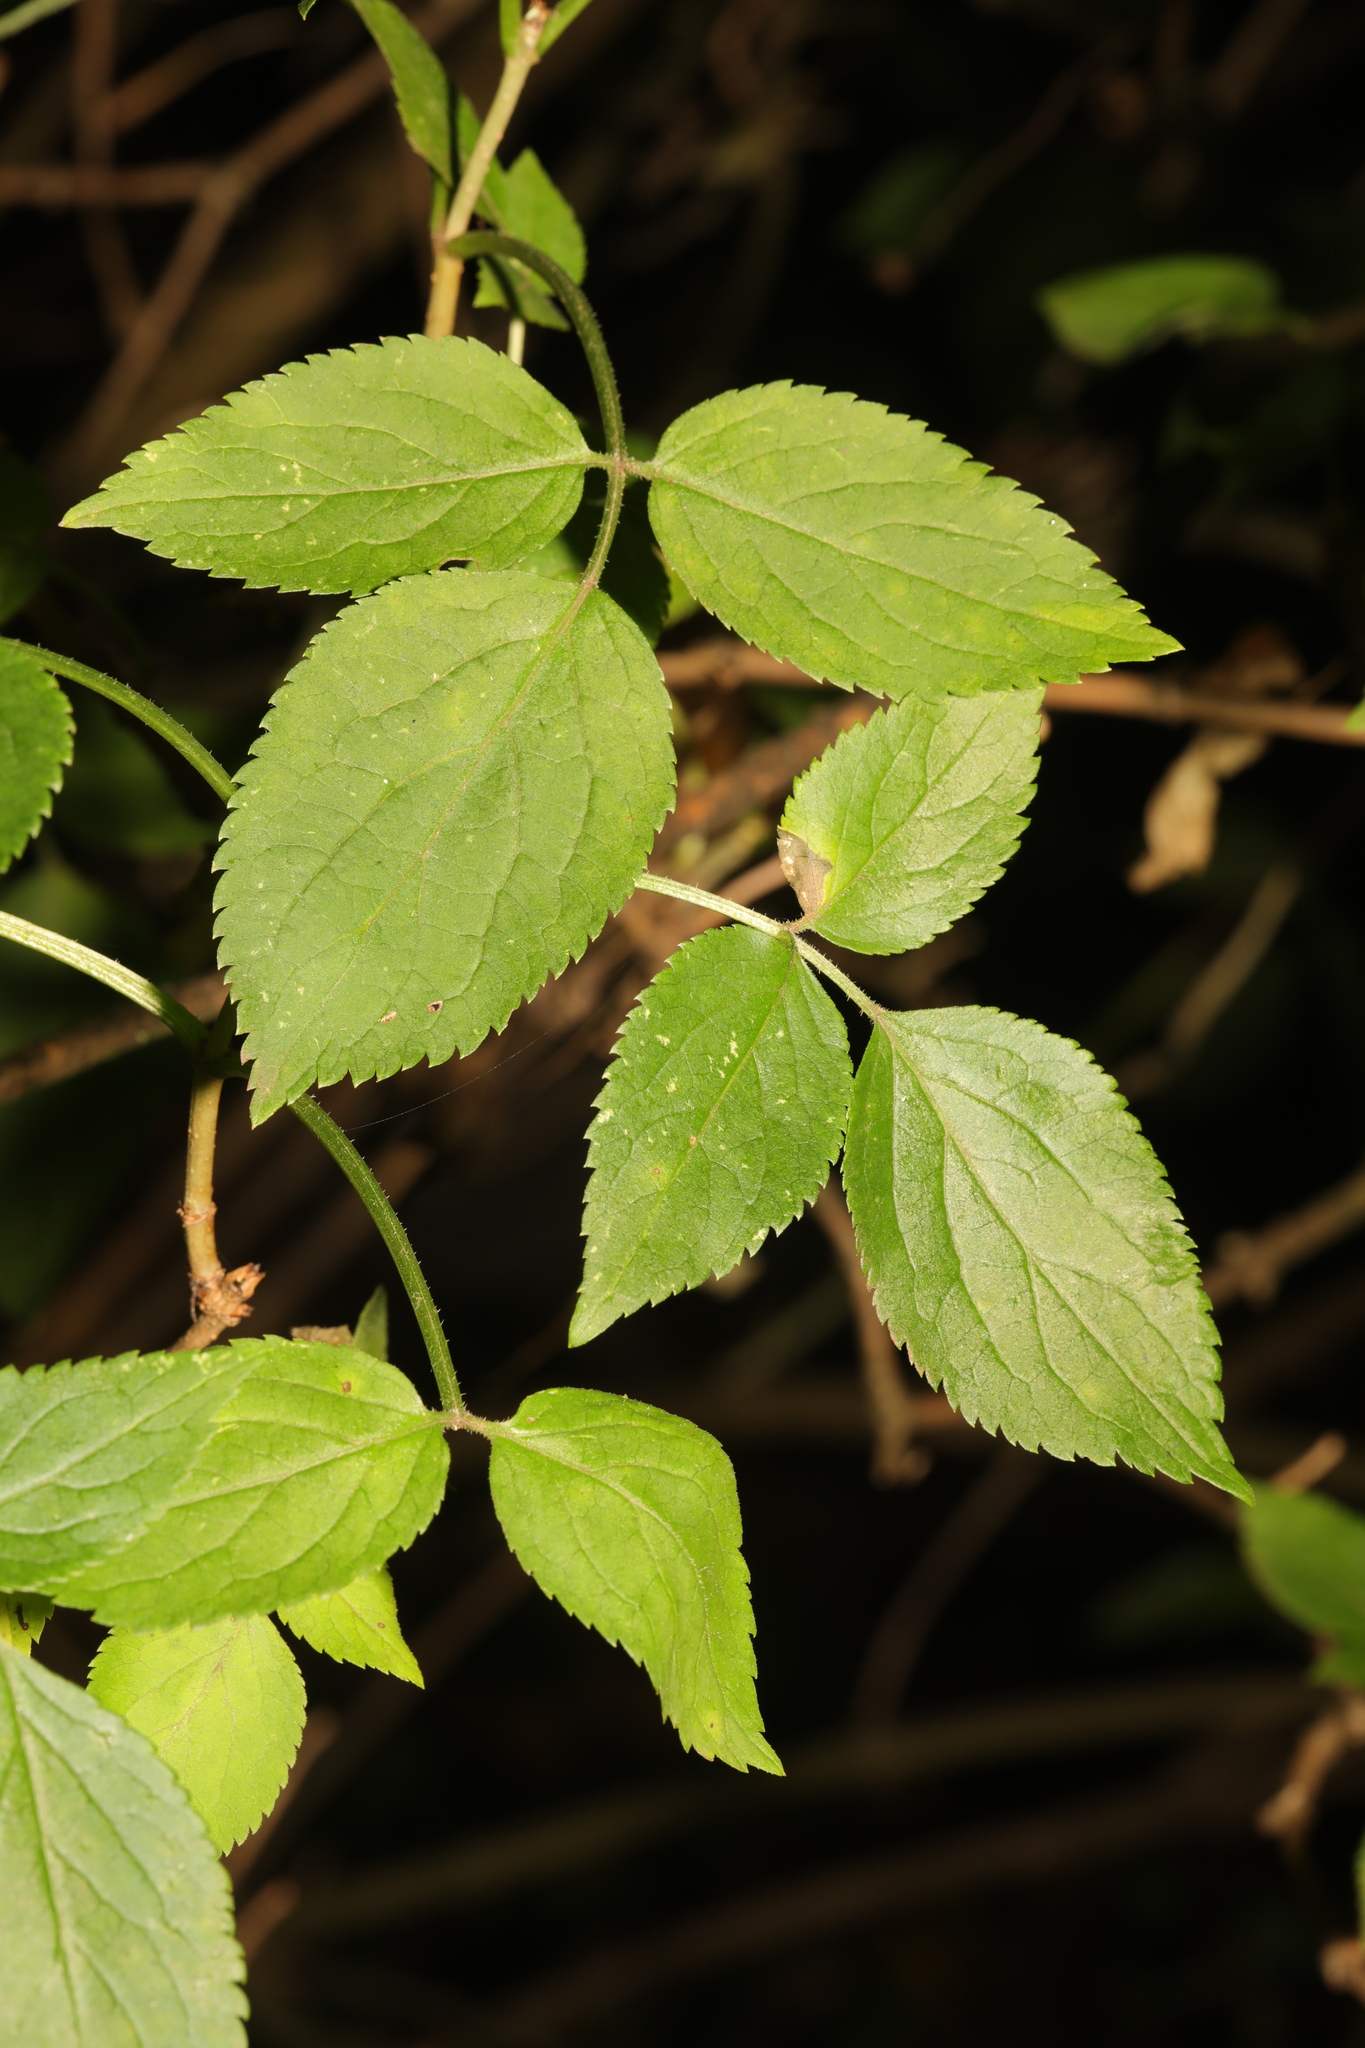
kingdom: Plantae
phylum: Tracheophyta
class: Magnoliopsida
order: Dipsacales
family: Viburnaceae
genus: Sambucus
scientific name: Sambucus nigra
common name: Elder
